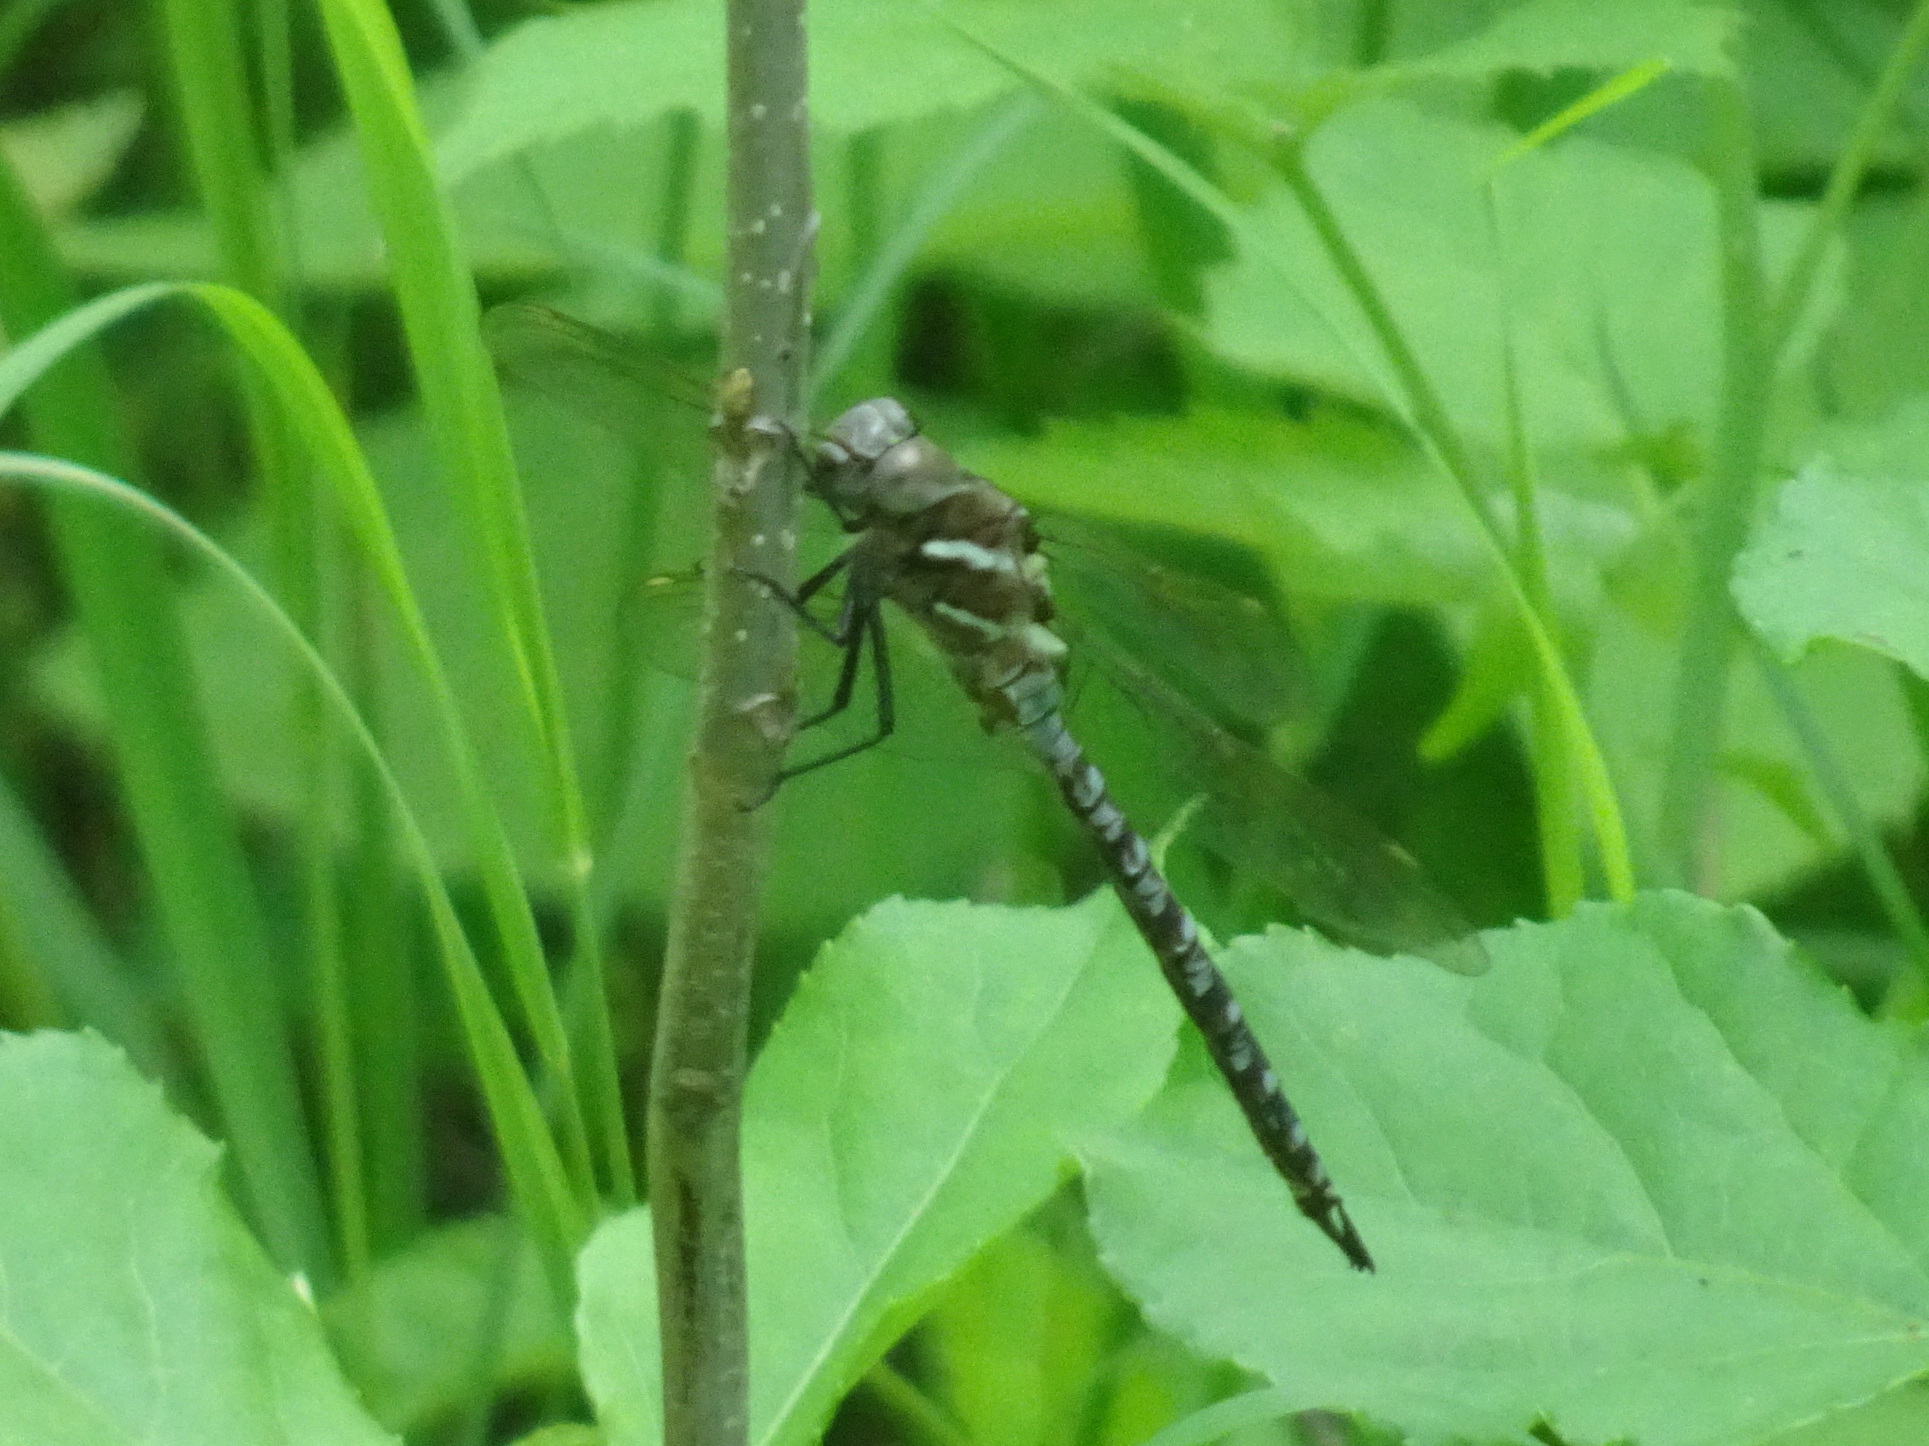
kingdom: Animalia
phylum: Arthropoda
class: Insecta
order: Odonata
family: Aeshnidae
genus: Rhionaeschna
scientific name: Rhionaeschna mutata
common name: Spatterdock darner
